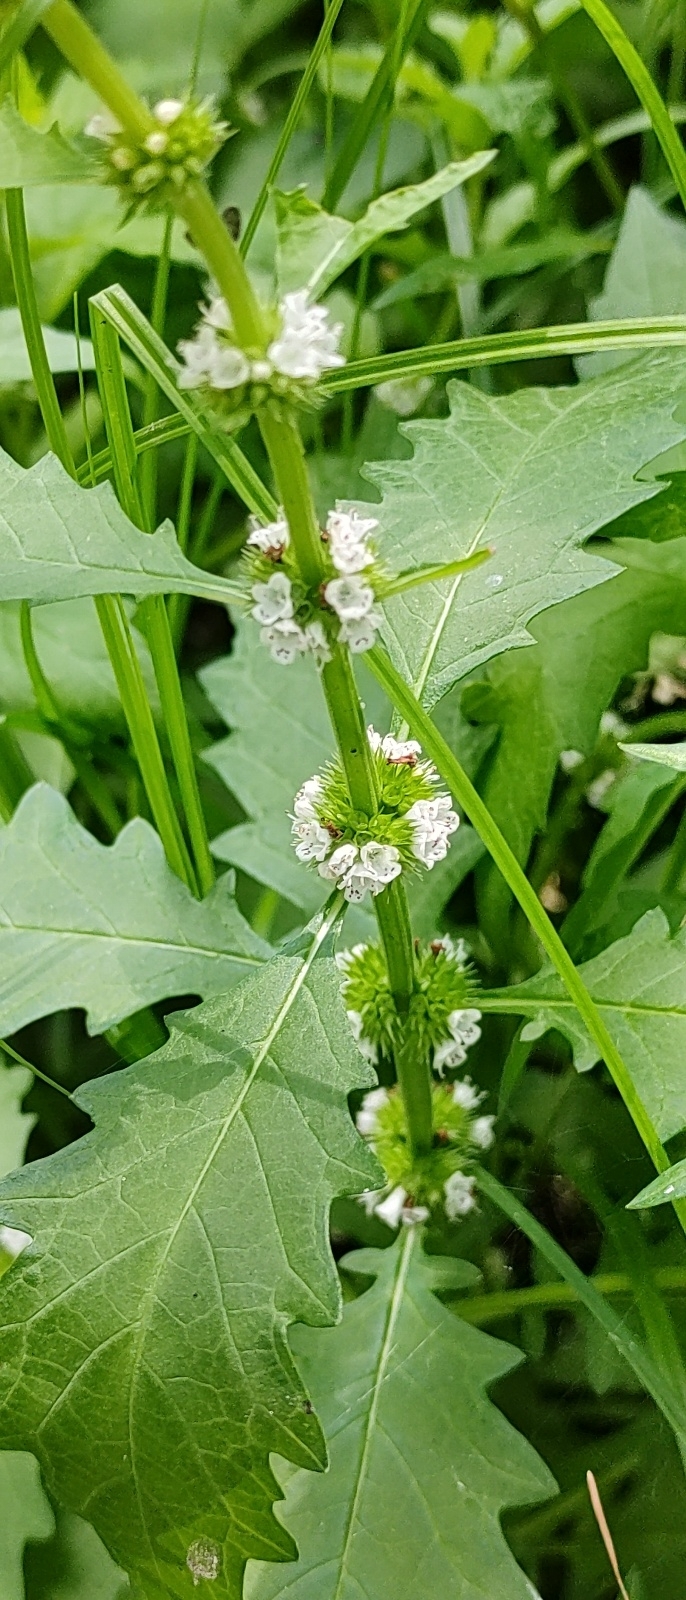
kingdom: Plantae
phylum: Tracheophyta
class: Magnoliopsida
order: Lamiales
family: Lamiaceae
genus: Lycopus
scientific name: Lycopus europaeus
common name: European bugleweed
